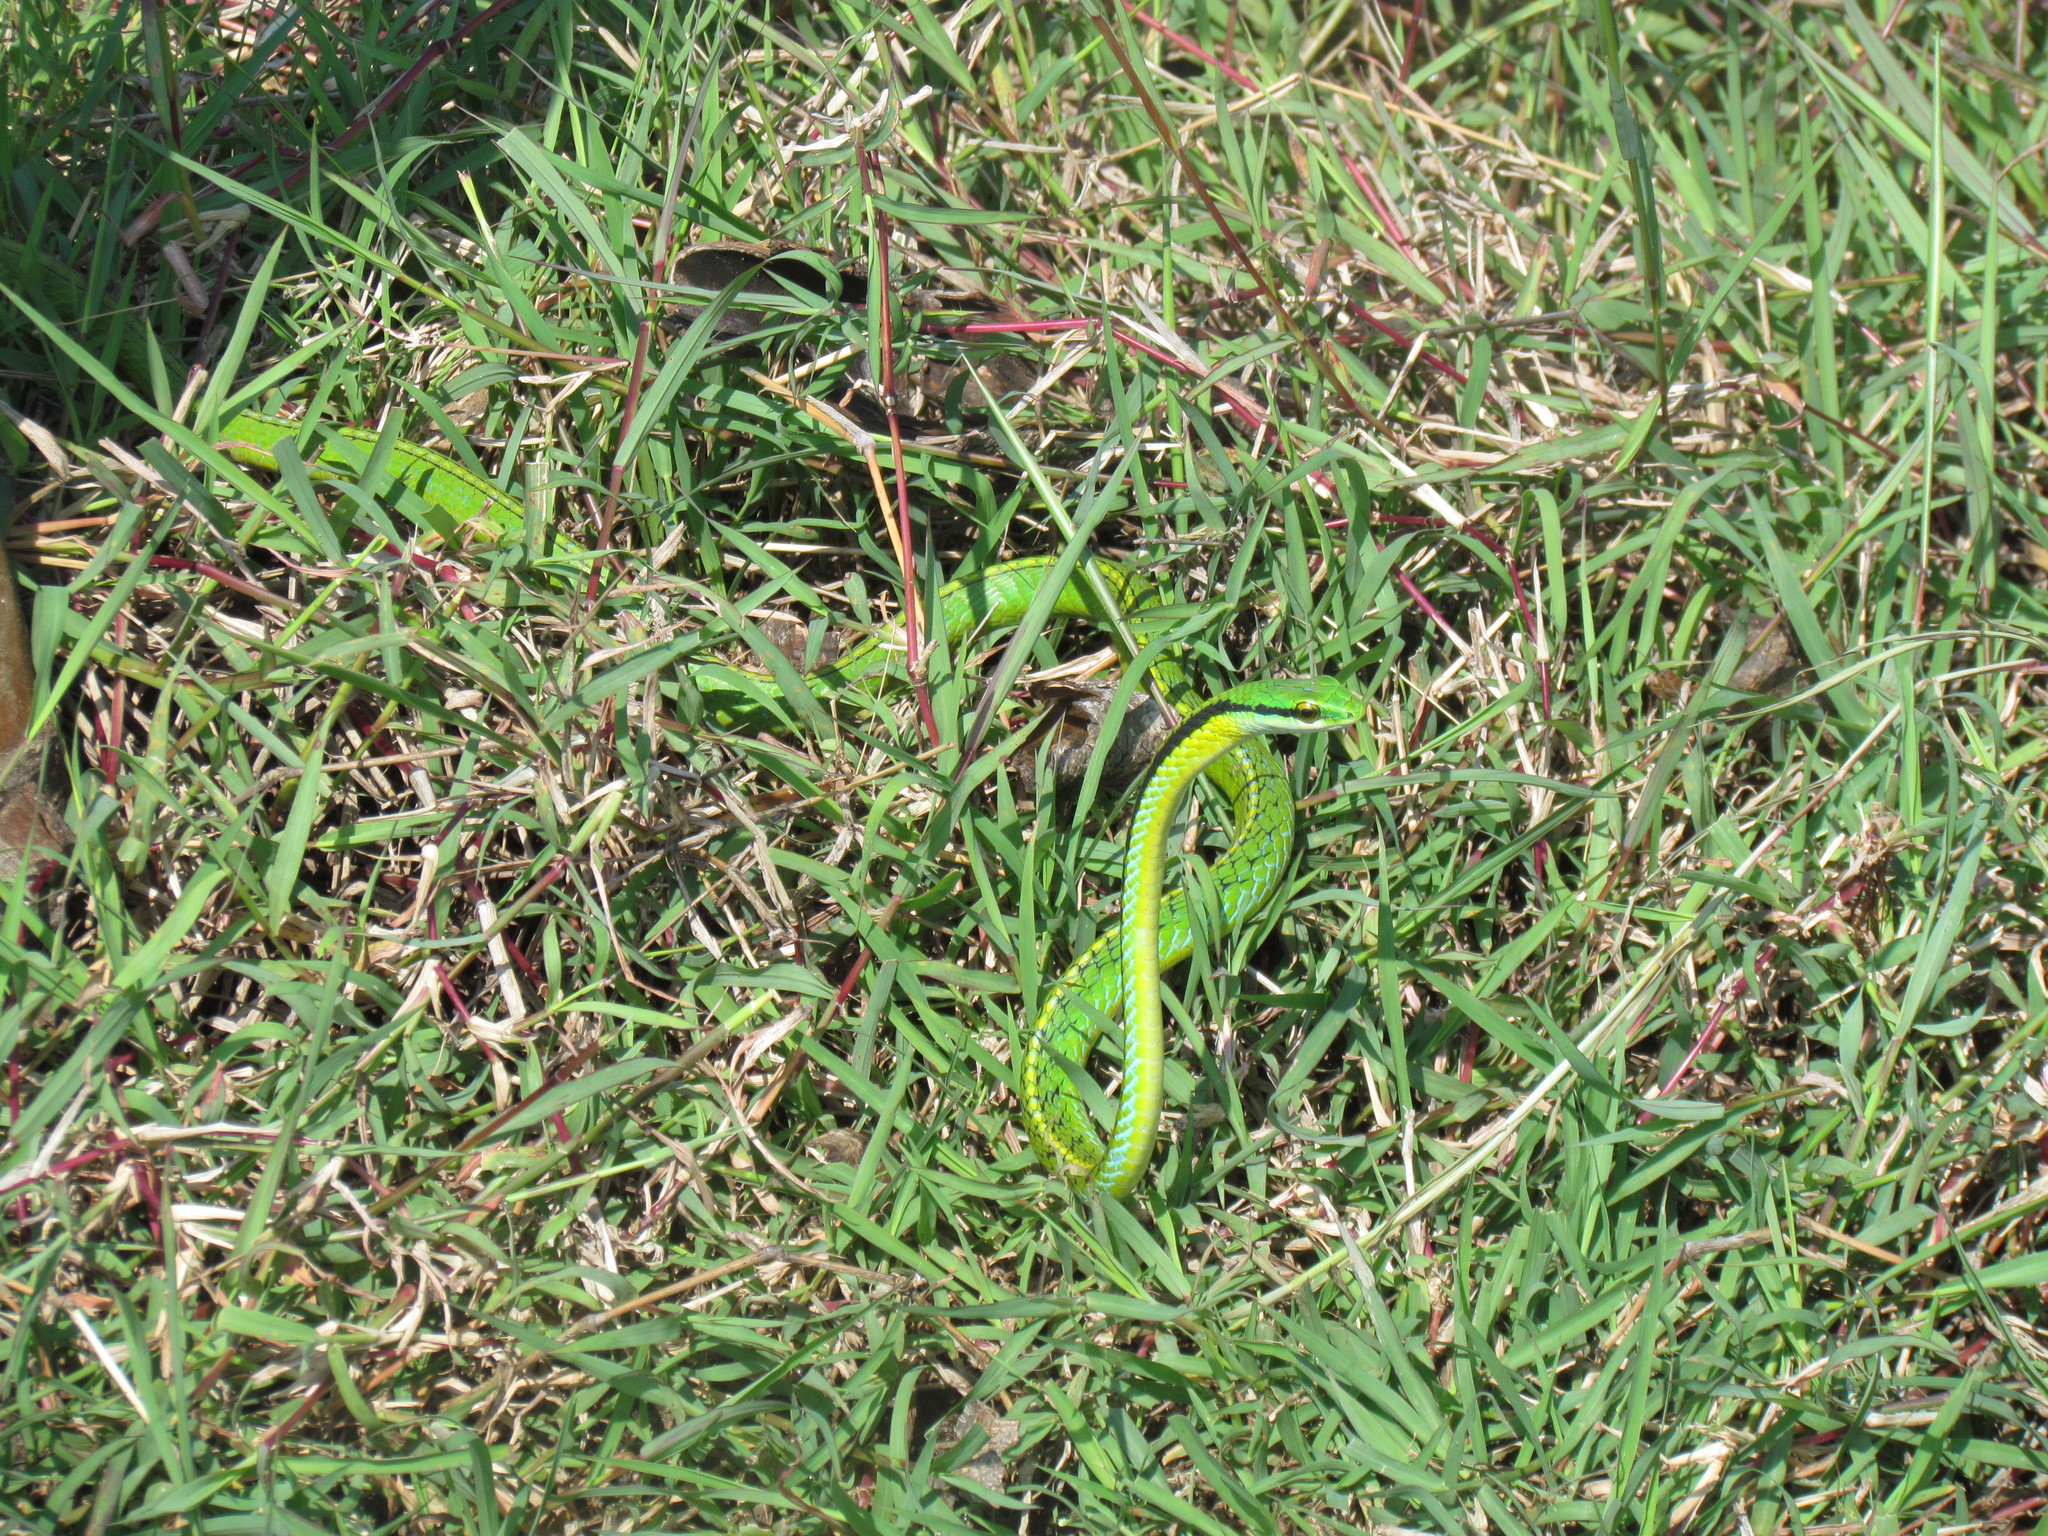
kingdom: Animalia
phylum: Chordata
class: Squamata
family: Colubridae
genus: Leptophis
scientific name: Leptophis diplotropis
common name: Pacific coast parrot snake
